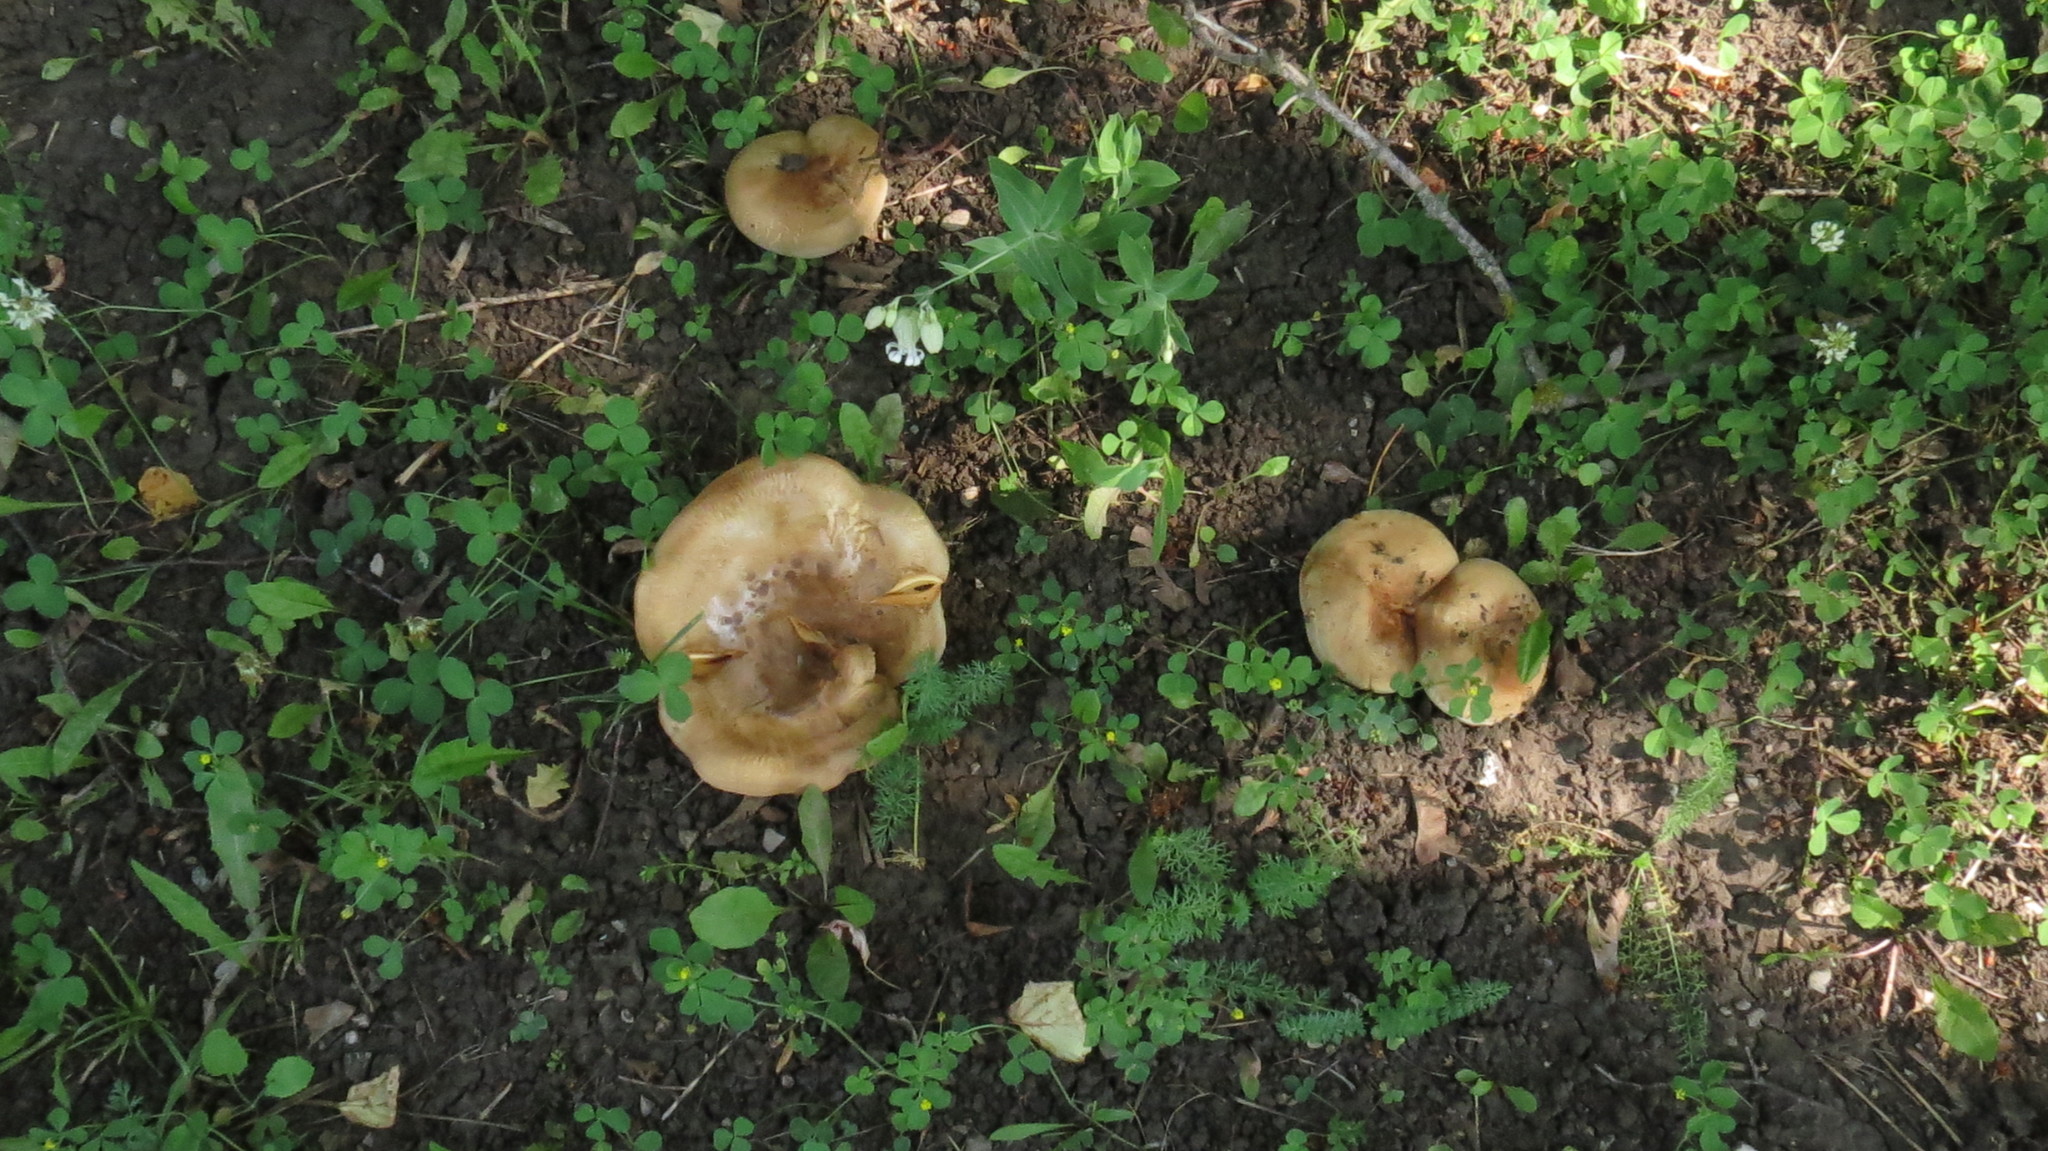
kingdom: Fungi
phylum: Basidiomycota
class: Agaricomycetes
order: Boletales
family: Paxillaceae
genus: Paxillus
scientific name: Paxillus involutus
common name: Brown roll rim
